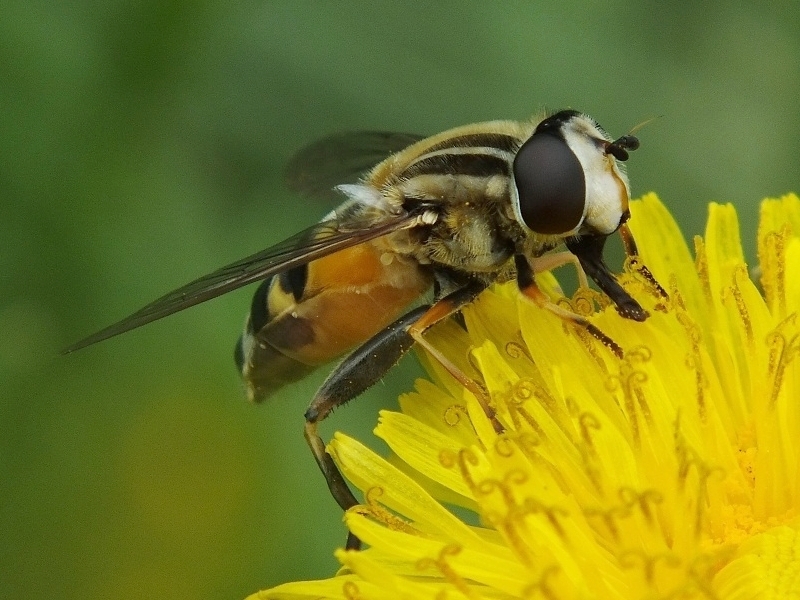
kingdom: Animalia
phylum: Arthropoda
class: Insecta
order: Diptera
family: Syrphidae
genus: Helophilus
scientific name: Helophilus trivittatus
